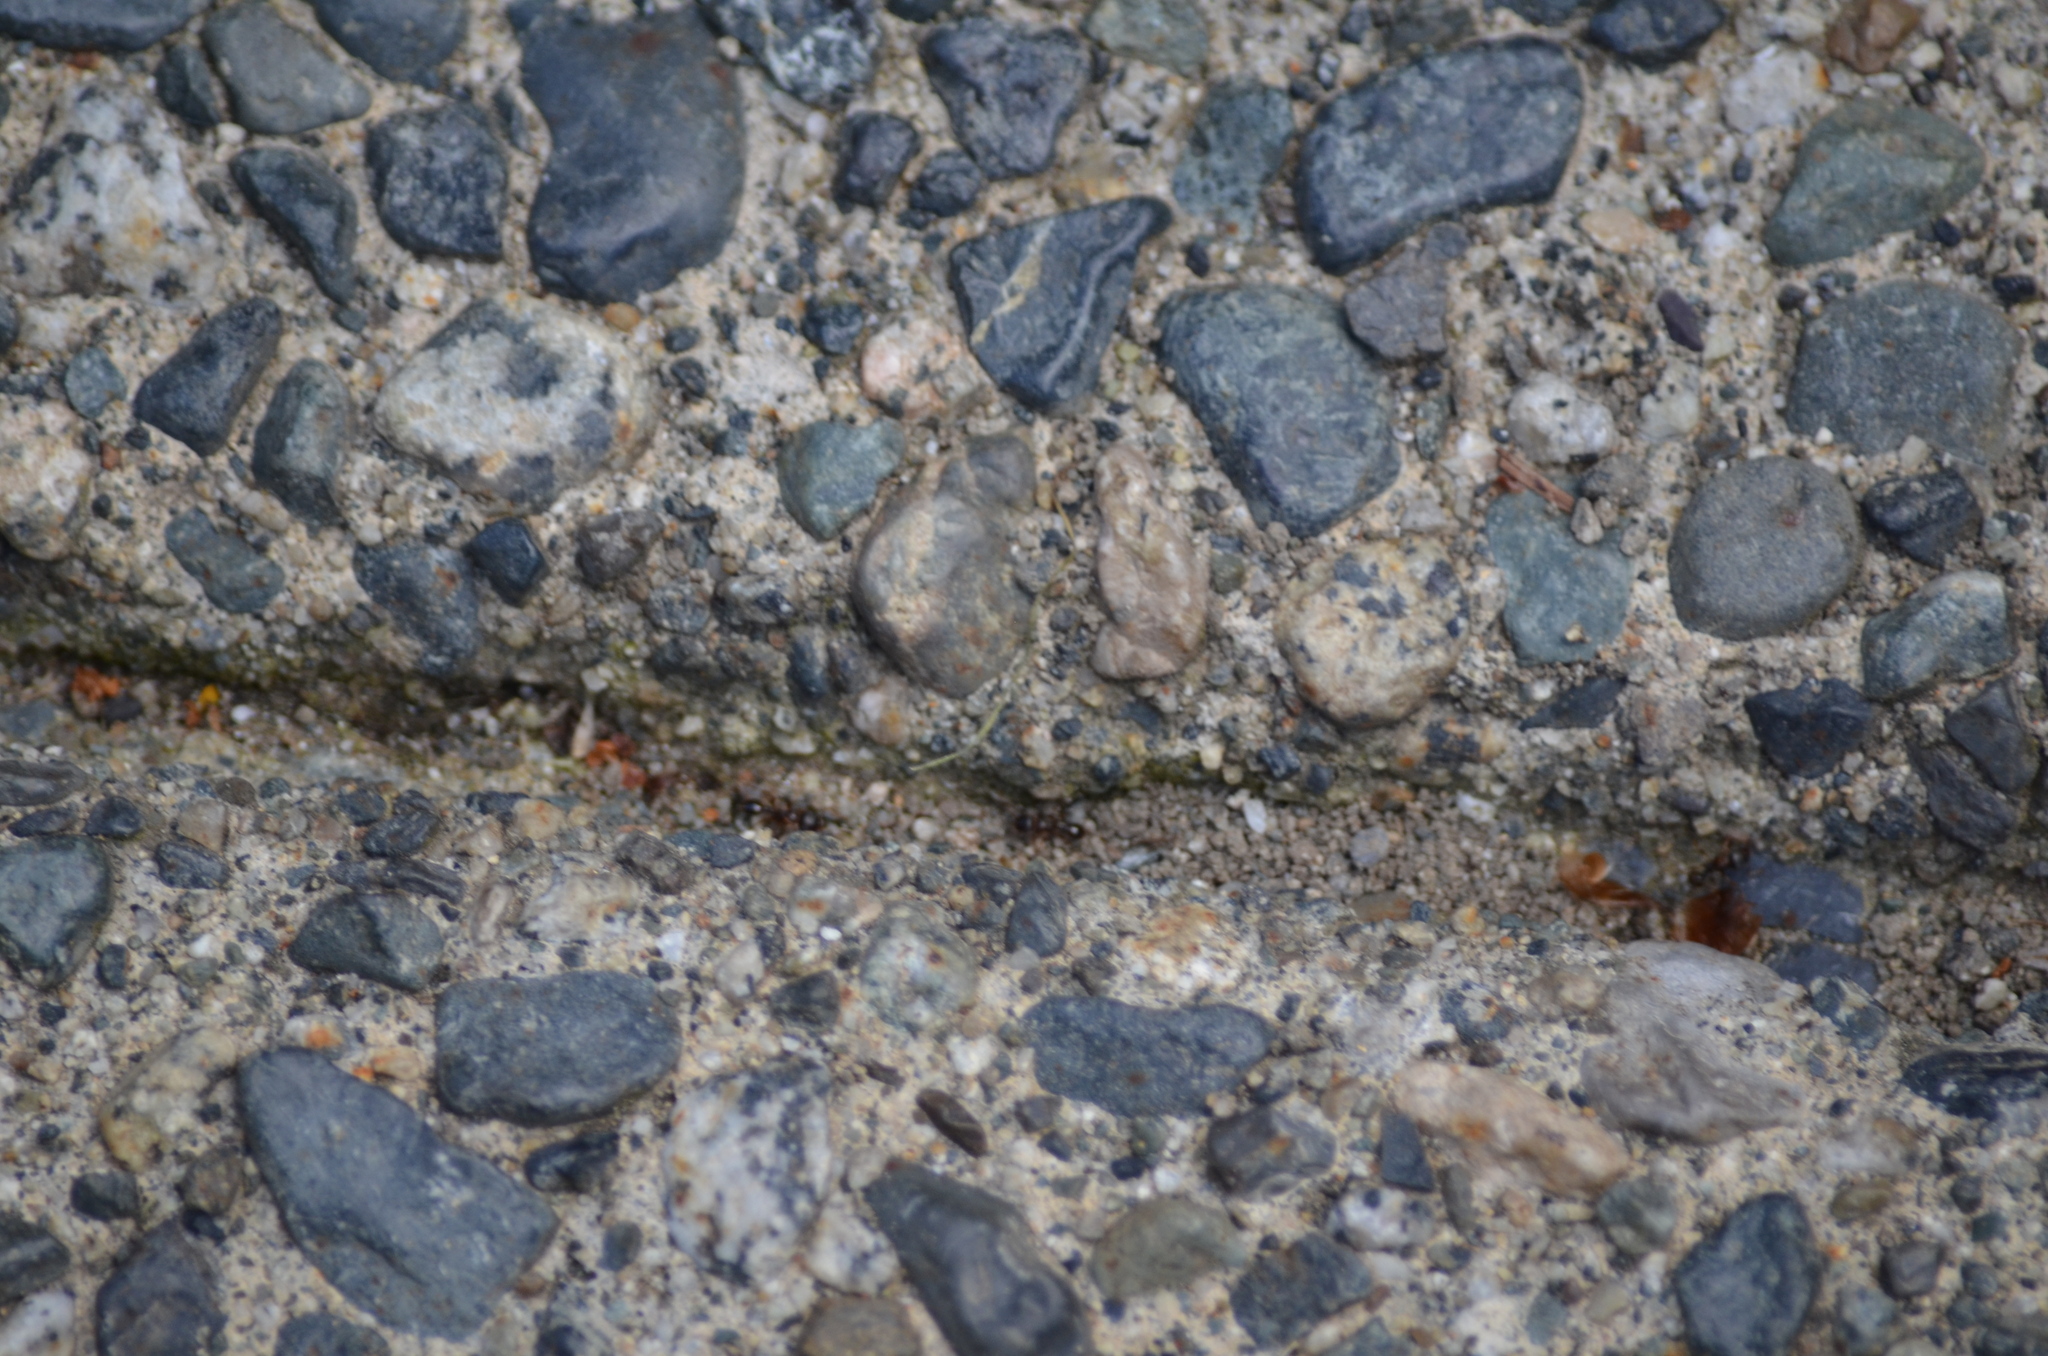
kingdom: Animalia
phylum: Arthropoda
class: Insecta
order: Hymenoptera
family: Formicidae
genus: Tetramorium
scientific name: Tetramorium immigrans
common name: Pavement ant
